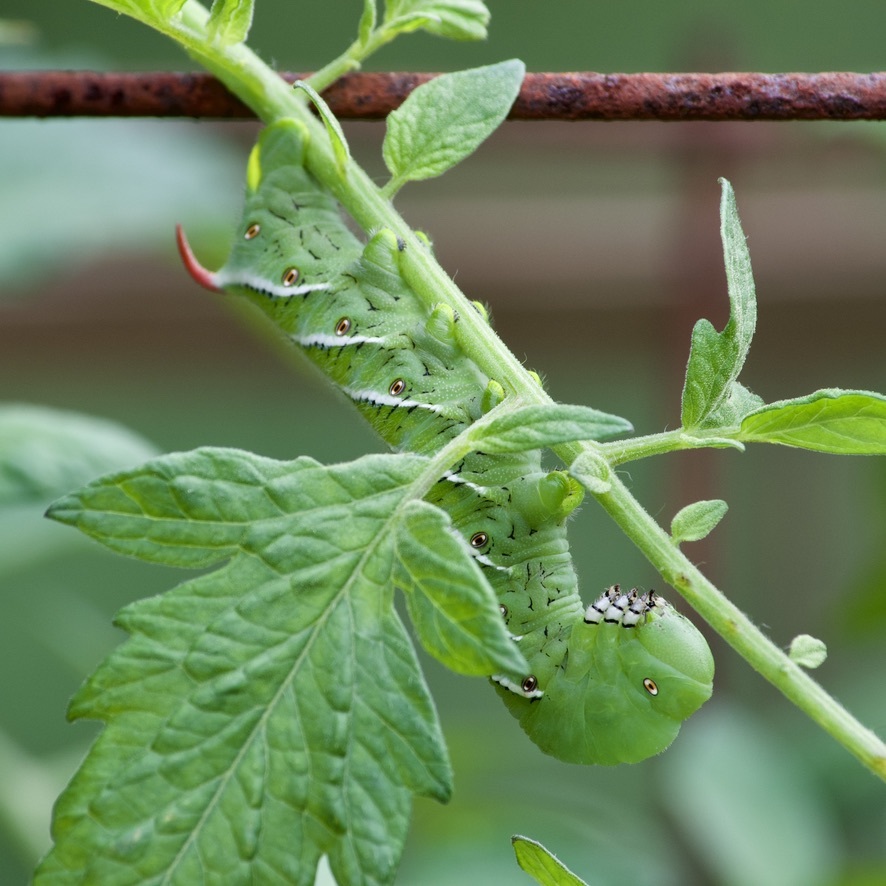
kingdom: Animalia
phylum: Arthropoda
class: Insecta
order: Lepidoptera
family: Sphingidae
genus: Manduca
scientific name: Manduca sexta
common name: Carolina sphinx
